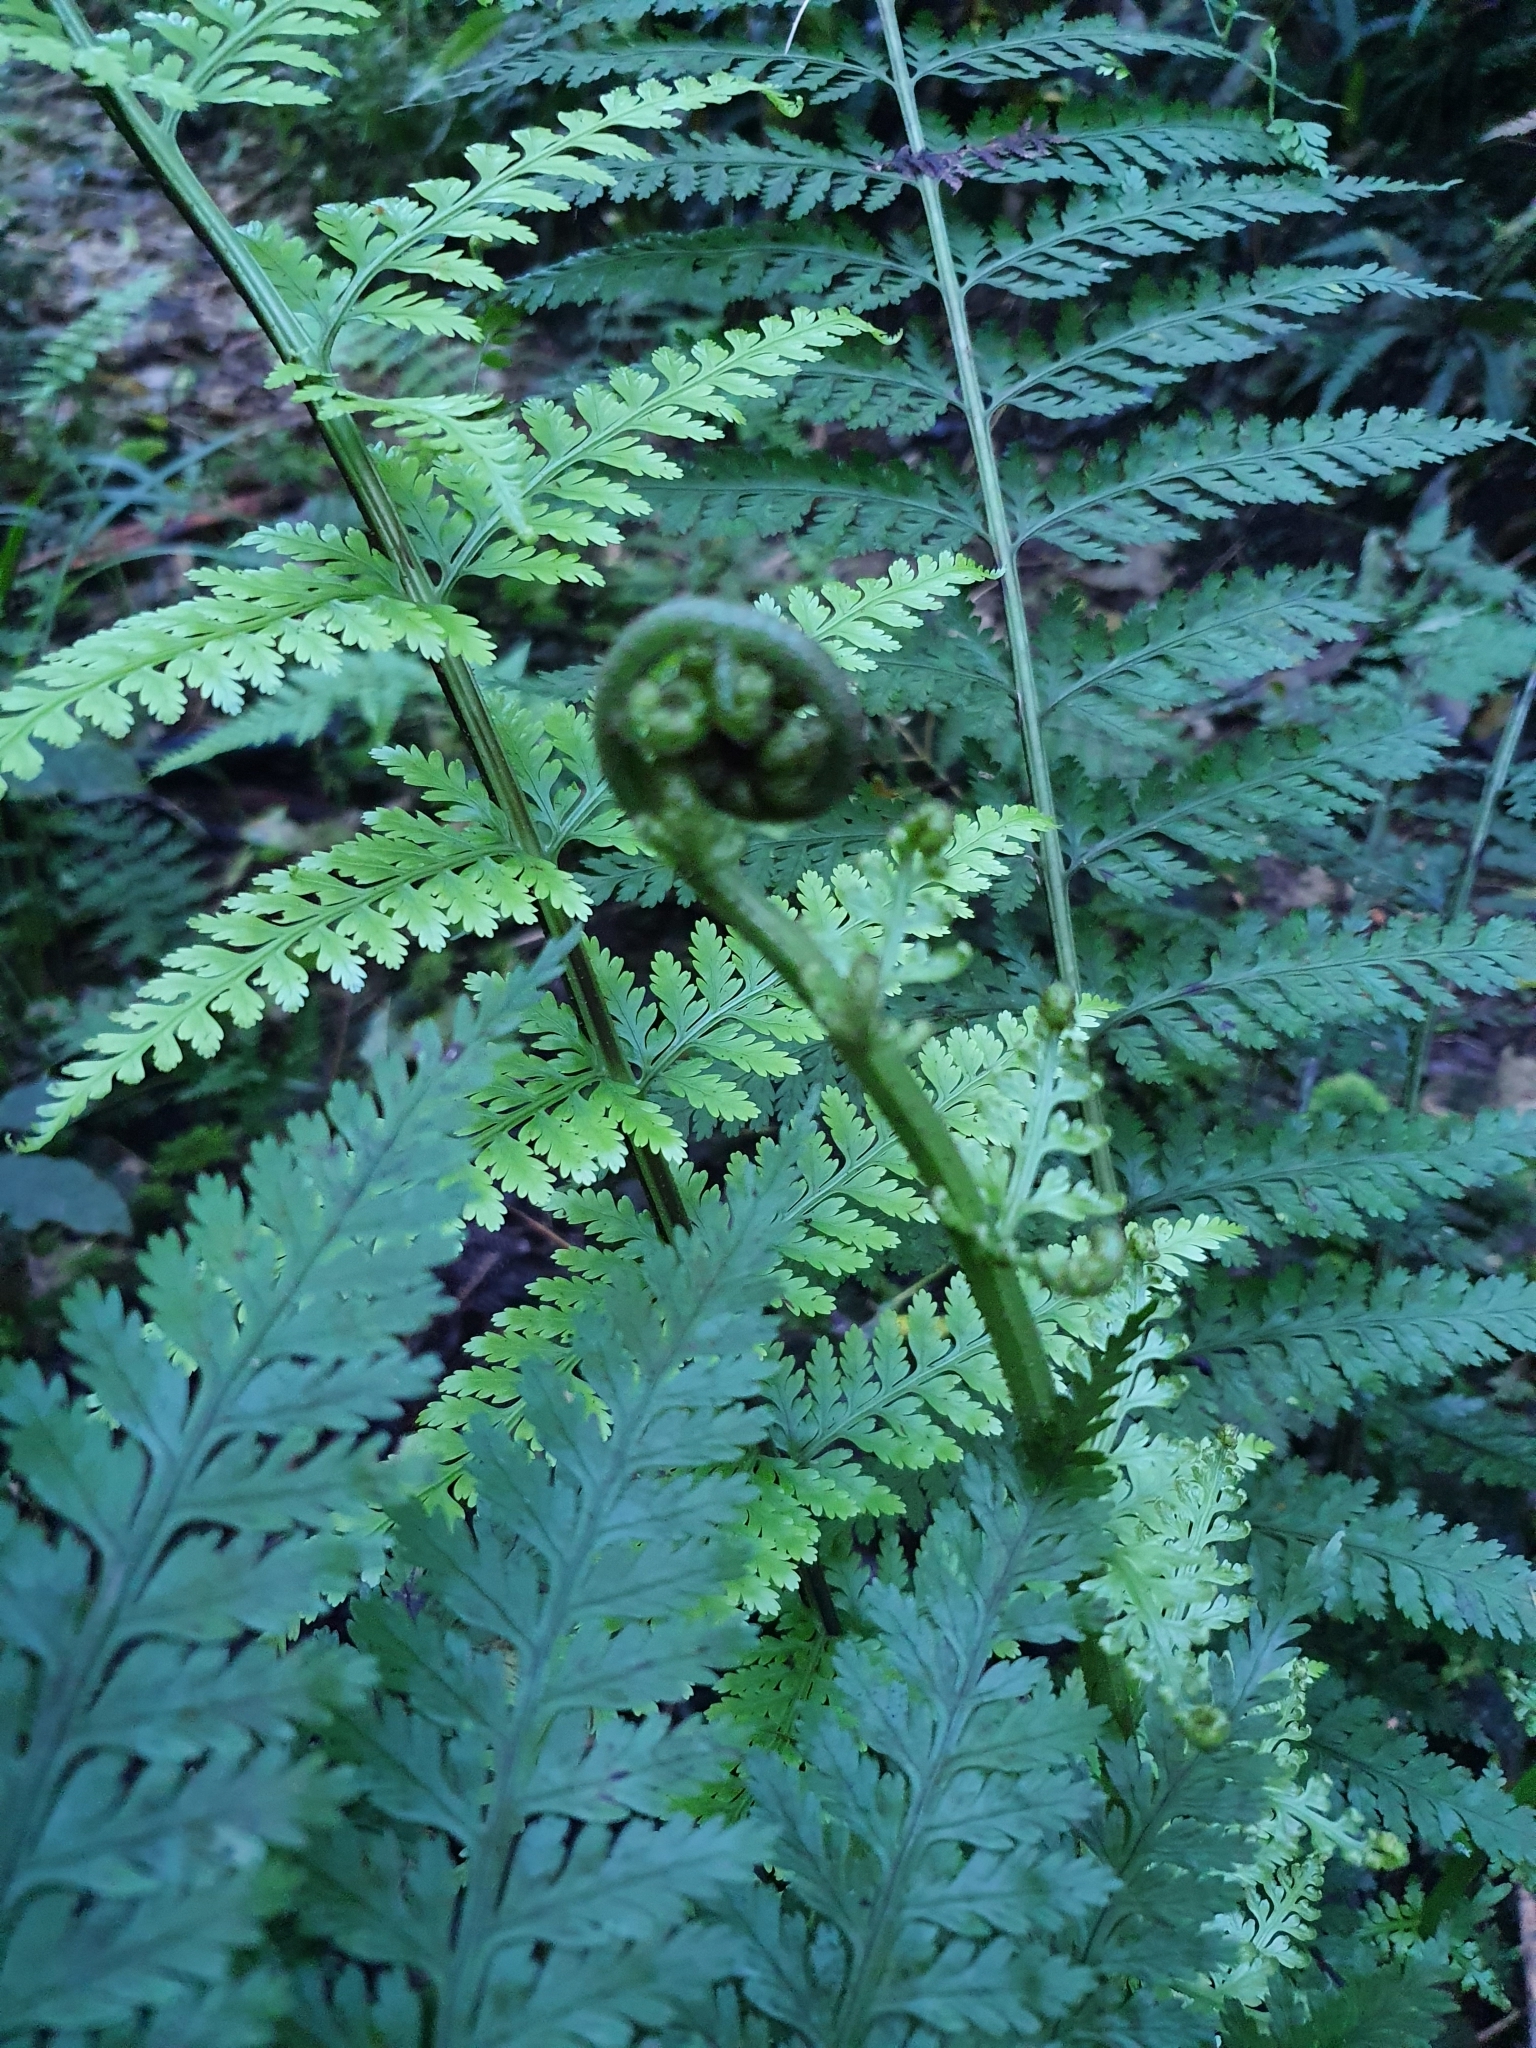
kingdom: Plantae
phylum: Tracheophyta
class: Polypodiopsida
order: Polypodiales
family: Aspleniaceae
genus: Asplenium
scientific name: Asplenium bulbiferum
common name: Mother fern
